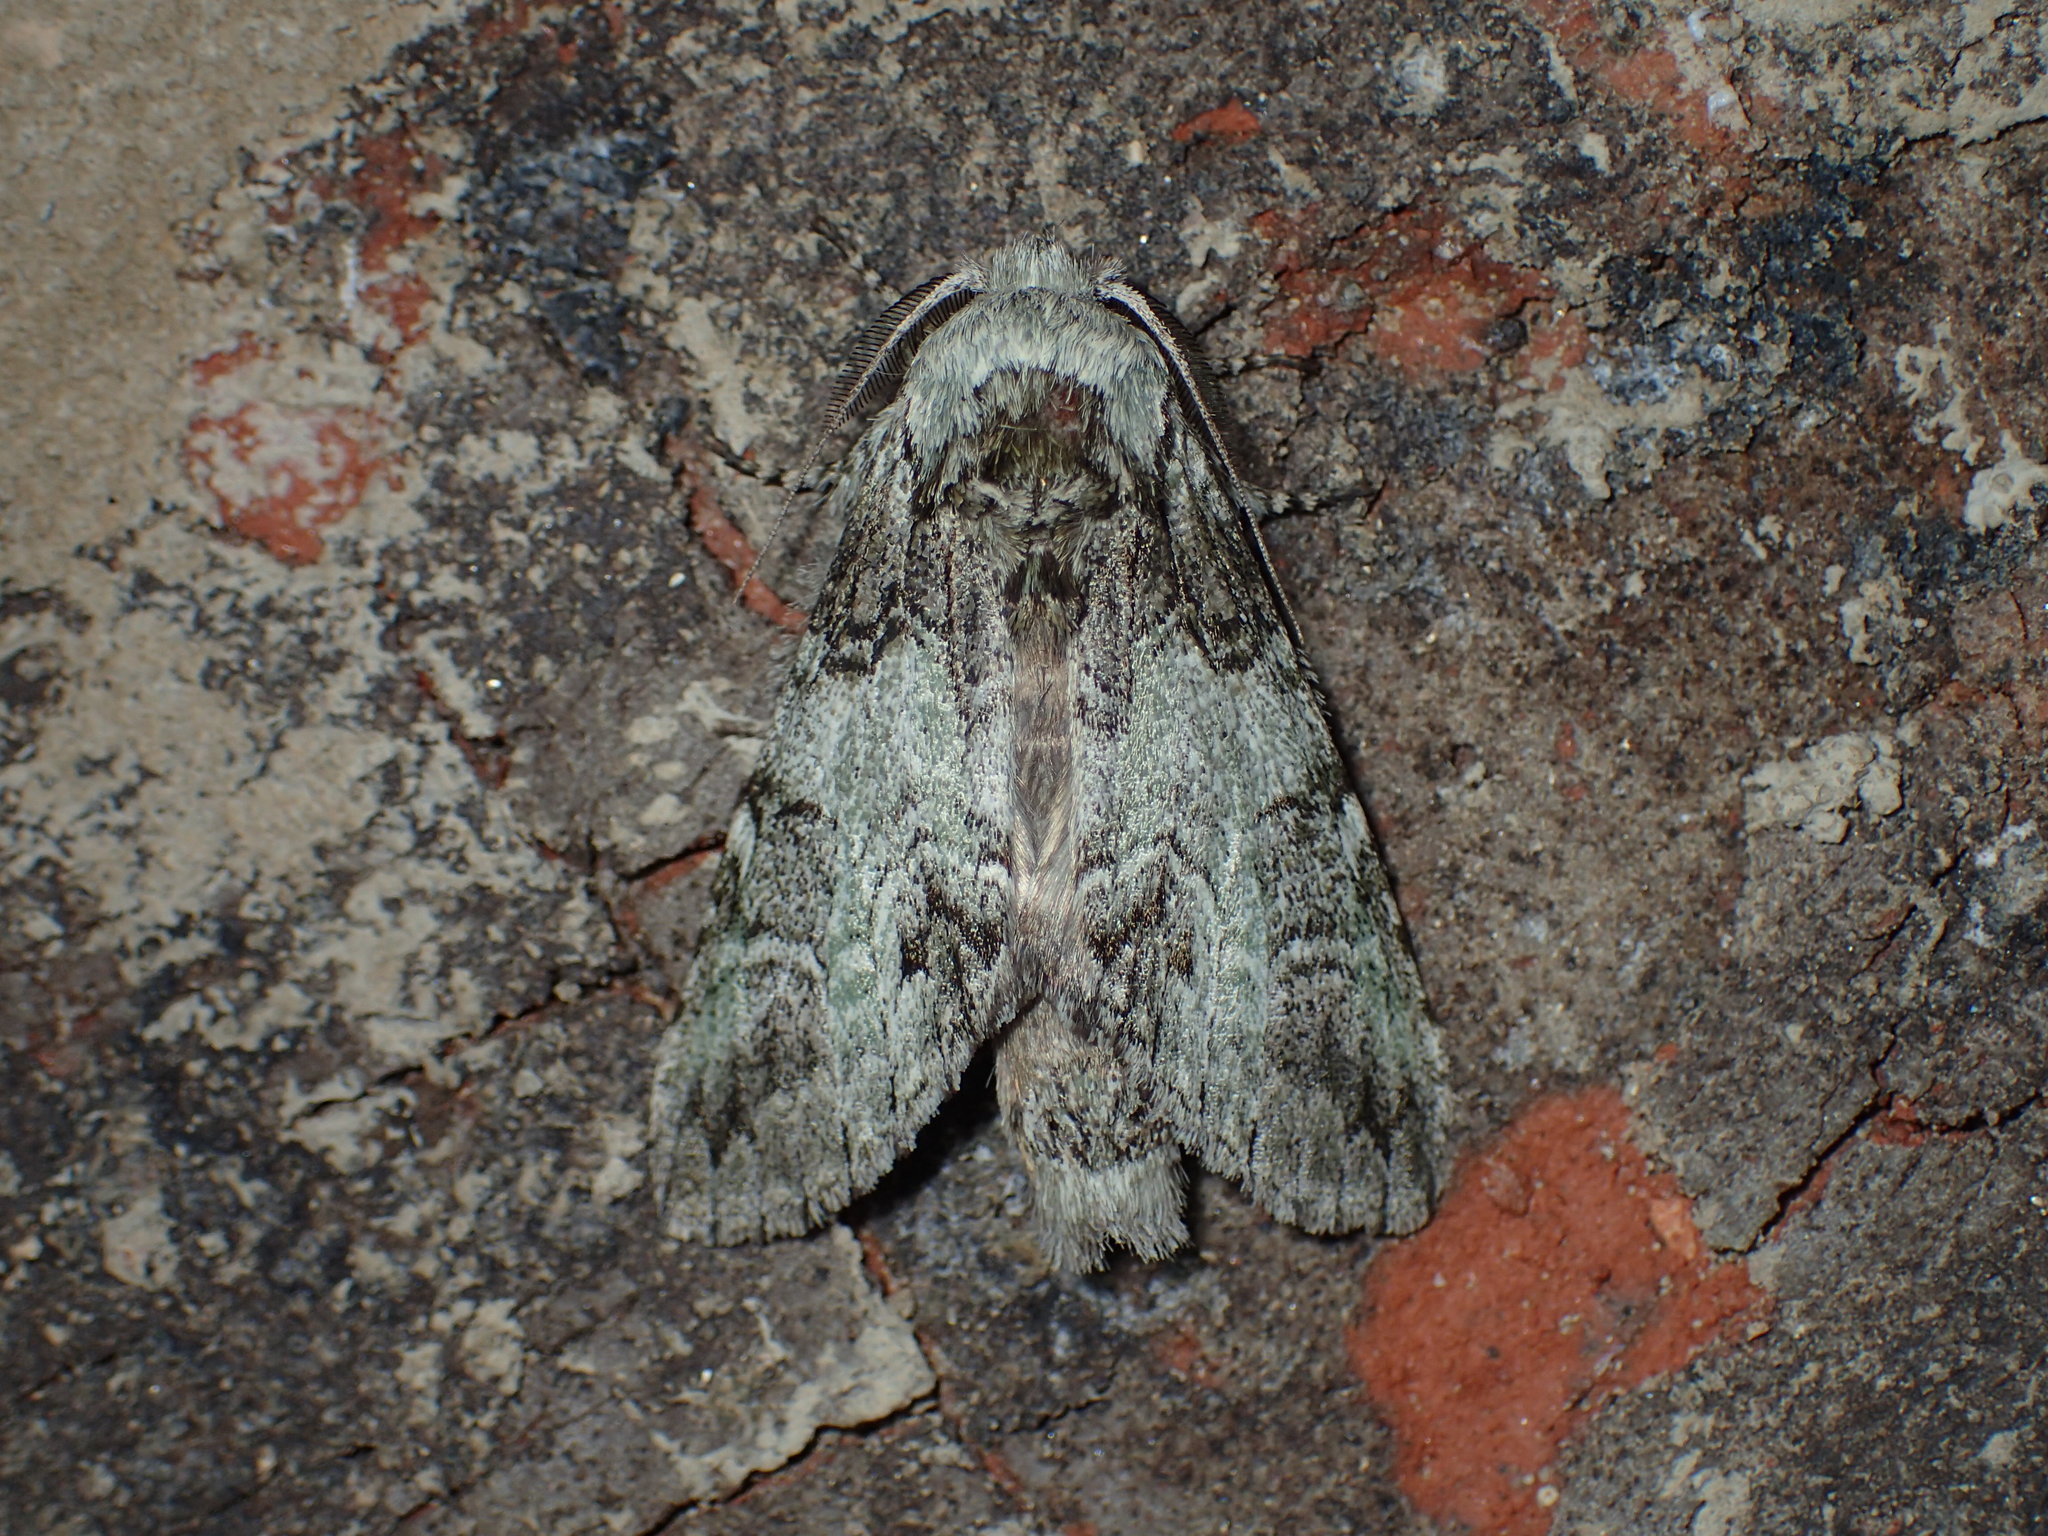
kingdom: Animalia
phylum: Arthropoda
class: Insecta
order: Lepidoptera
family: Notodontidae
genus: Macrurocampa
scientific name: Macrurocampa marthesia
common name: Mottled prominent
